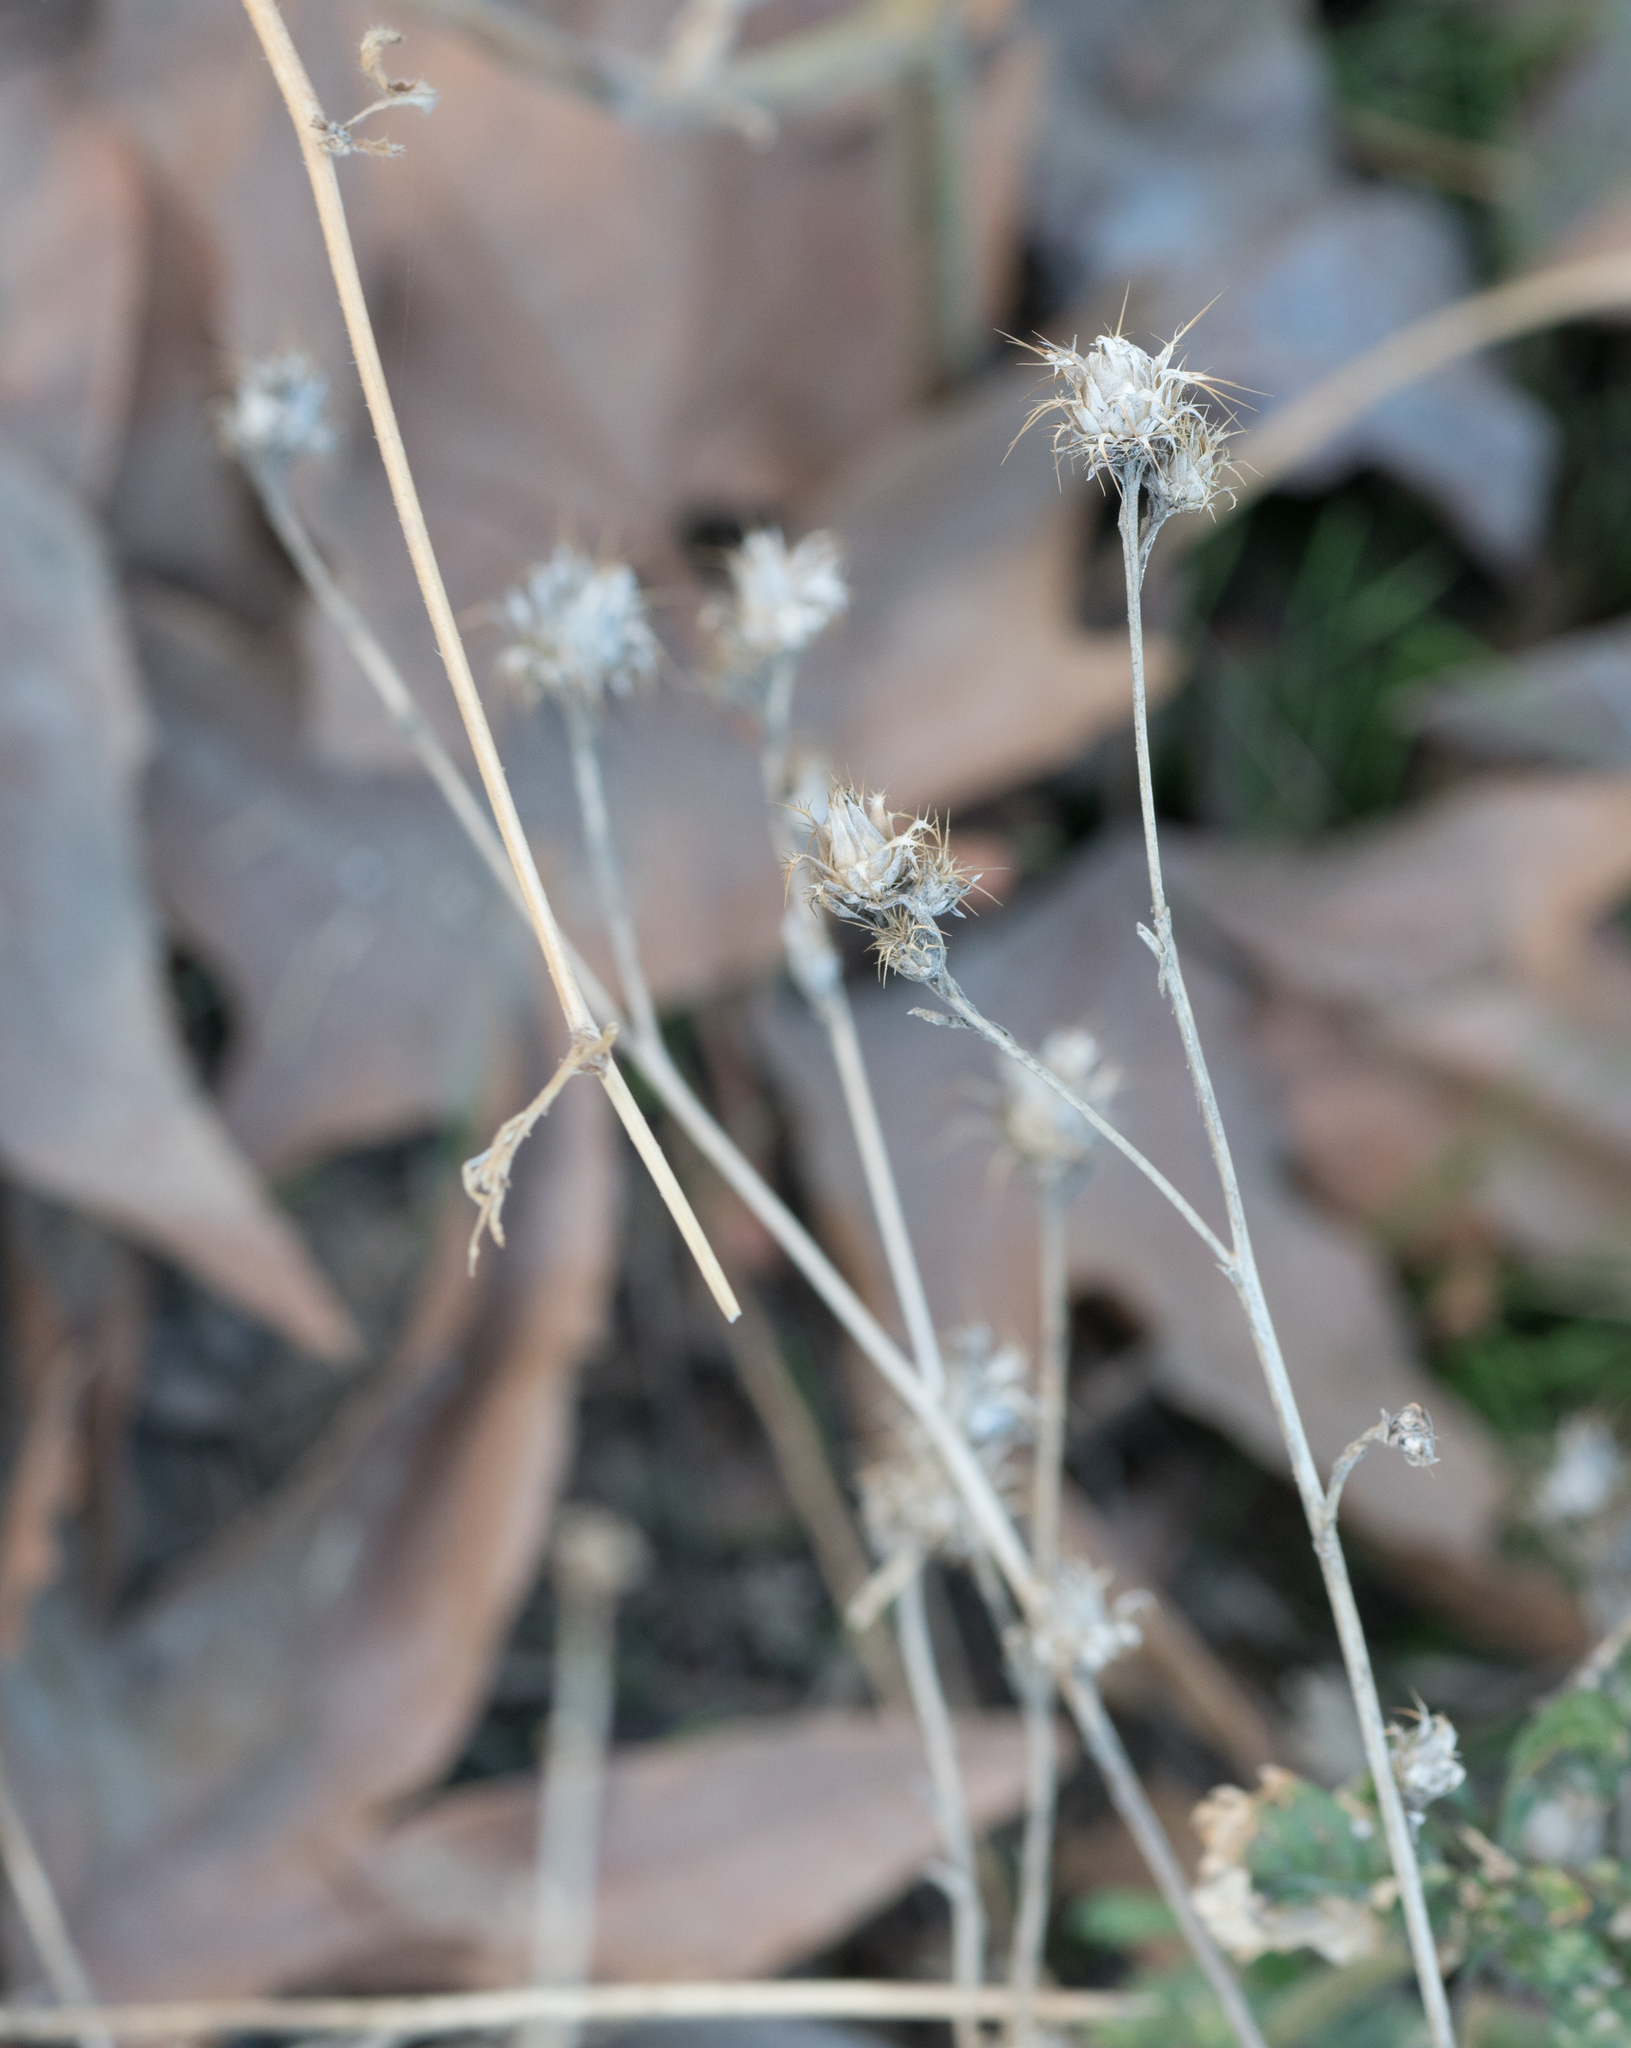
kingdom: Plantae
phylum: Tracheophyta
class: Magnoliopsida
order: Asterales
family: Asteraceae
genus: Centaurea
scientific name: Centaurea melitensis
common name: Maltese star-thistle
